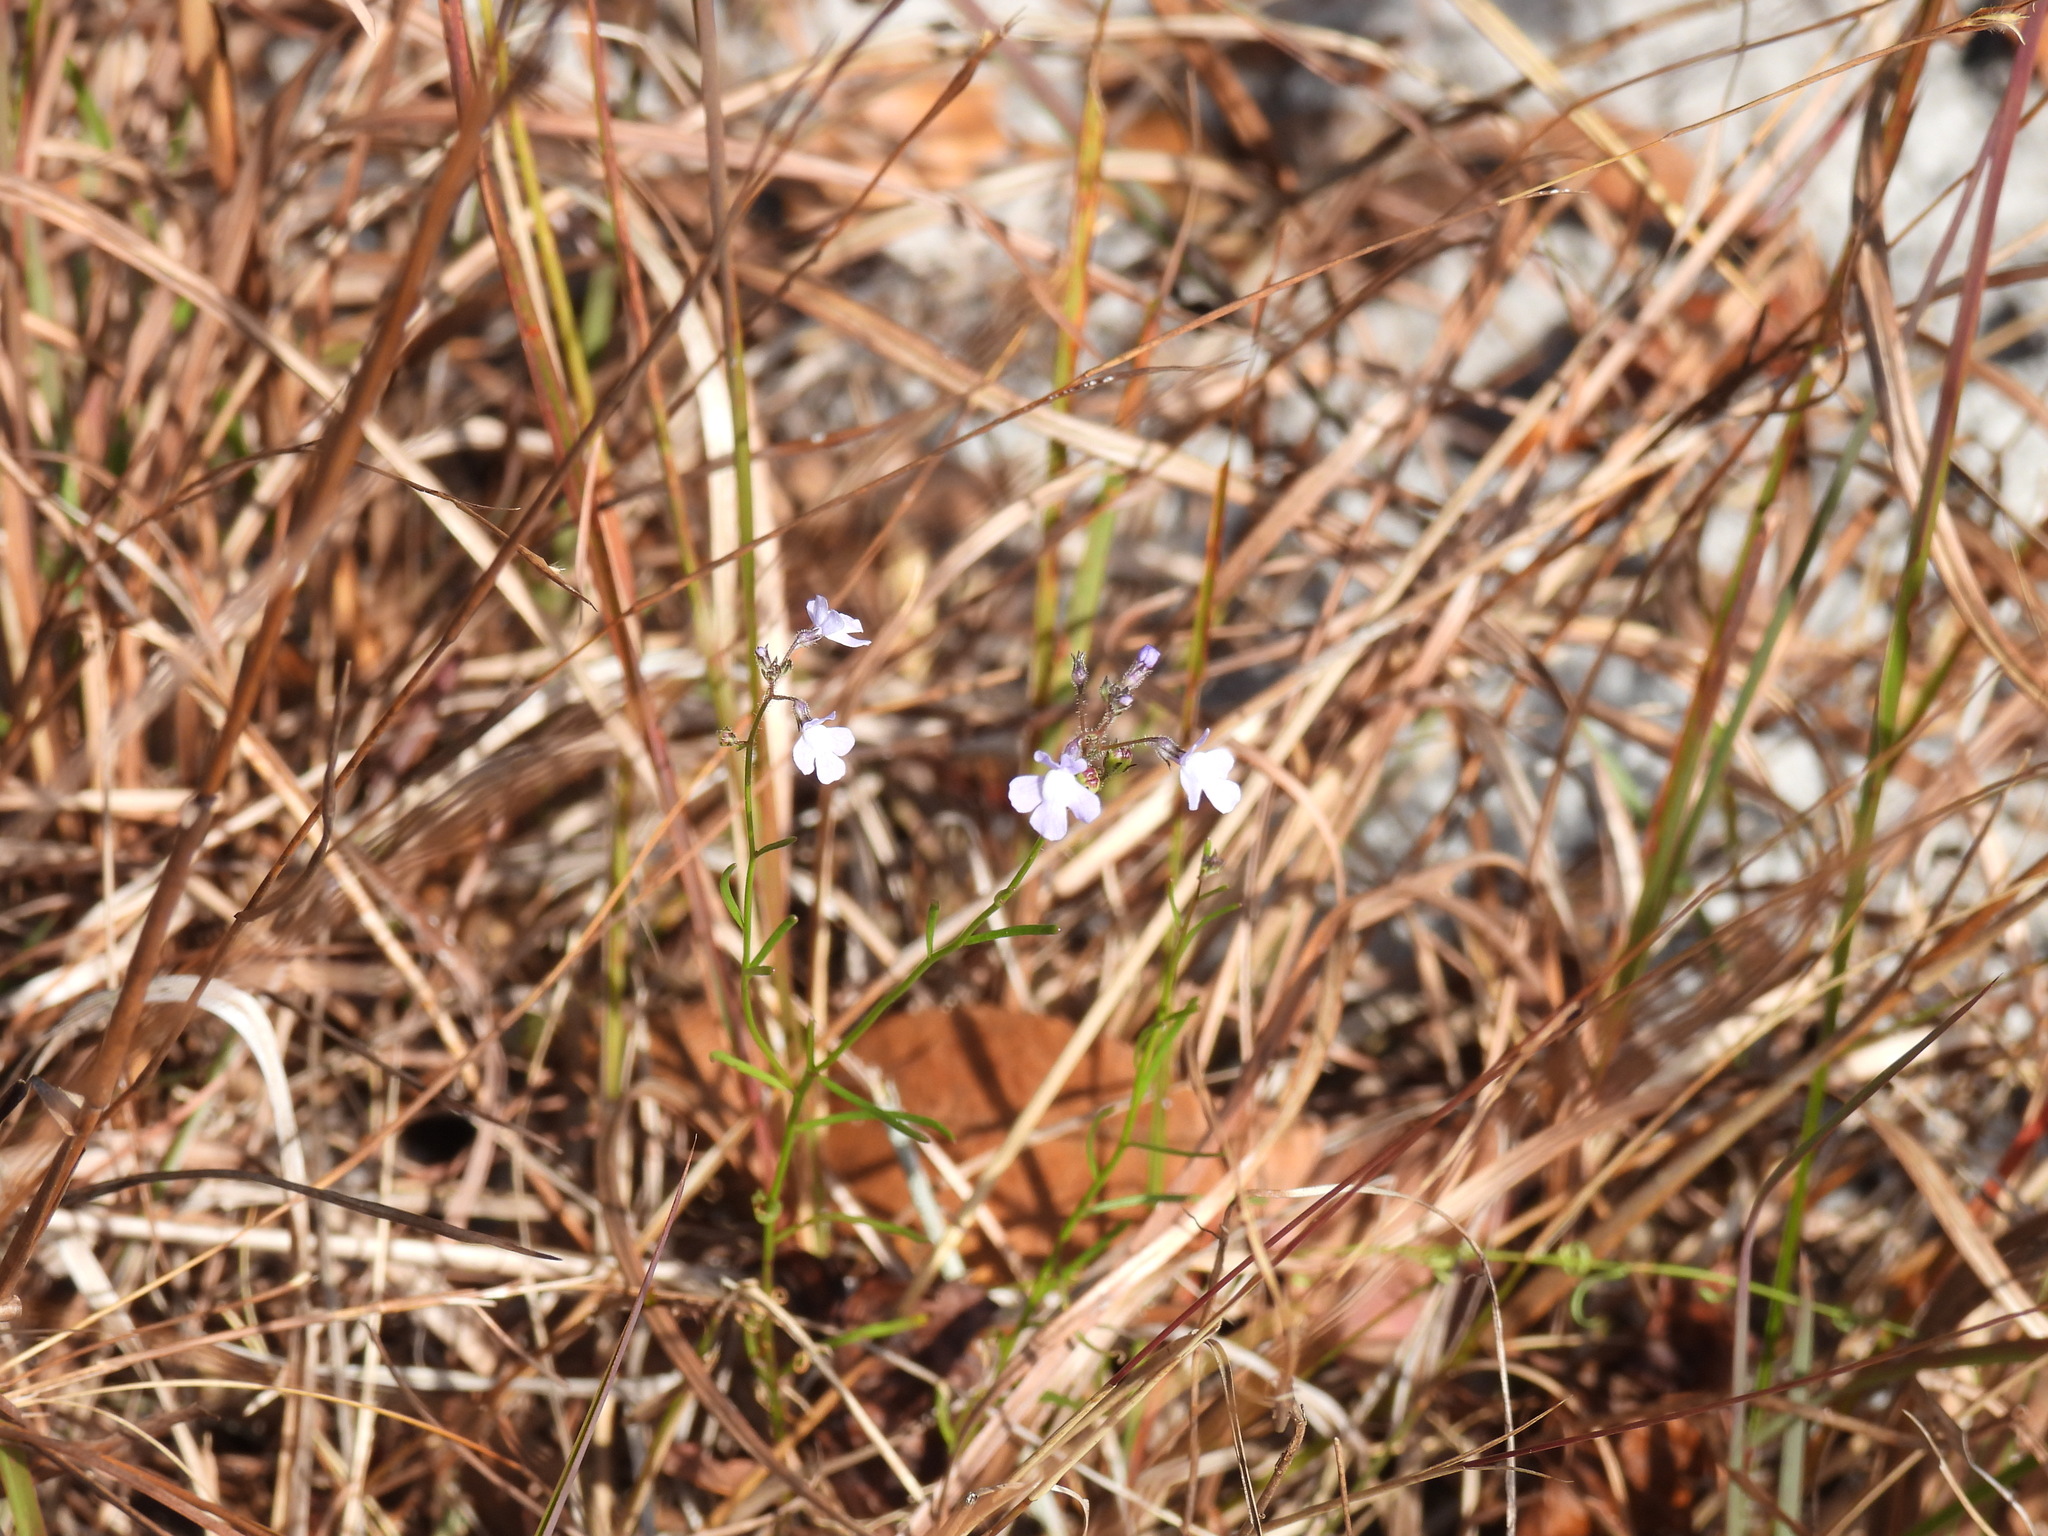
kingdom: Plantae
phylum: Tracheophyta
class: Magnoliopsida
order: Lamiales
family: Plantaginaceae
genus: Nuttallanthus
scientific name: Nuttallanthus floridanus
